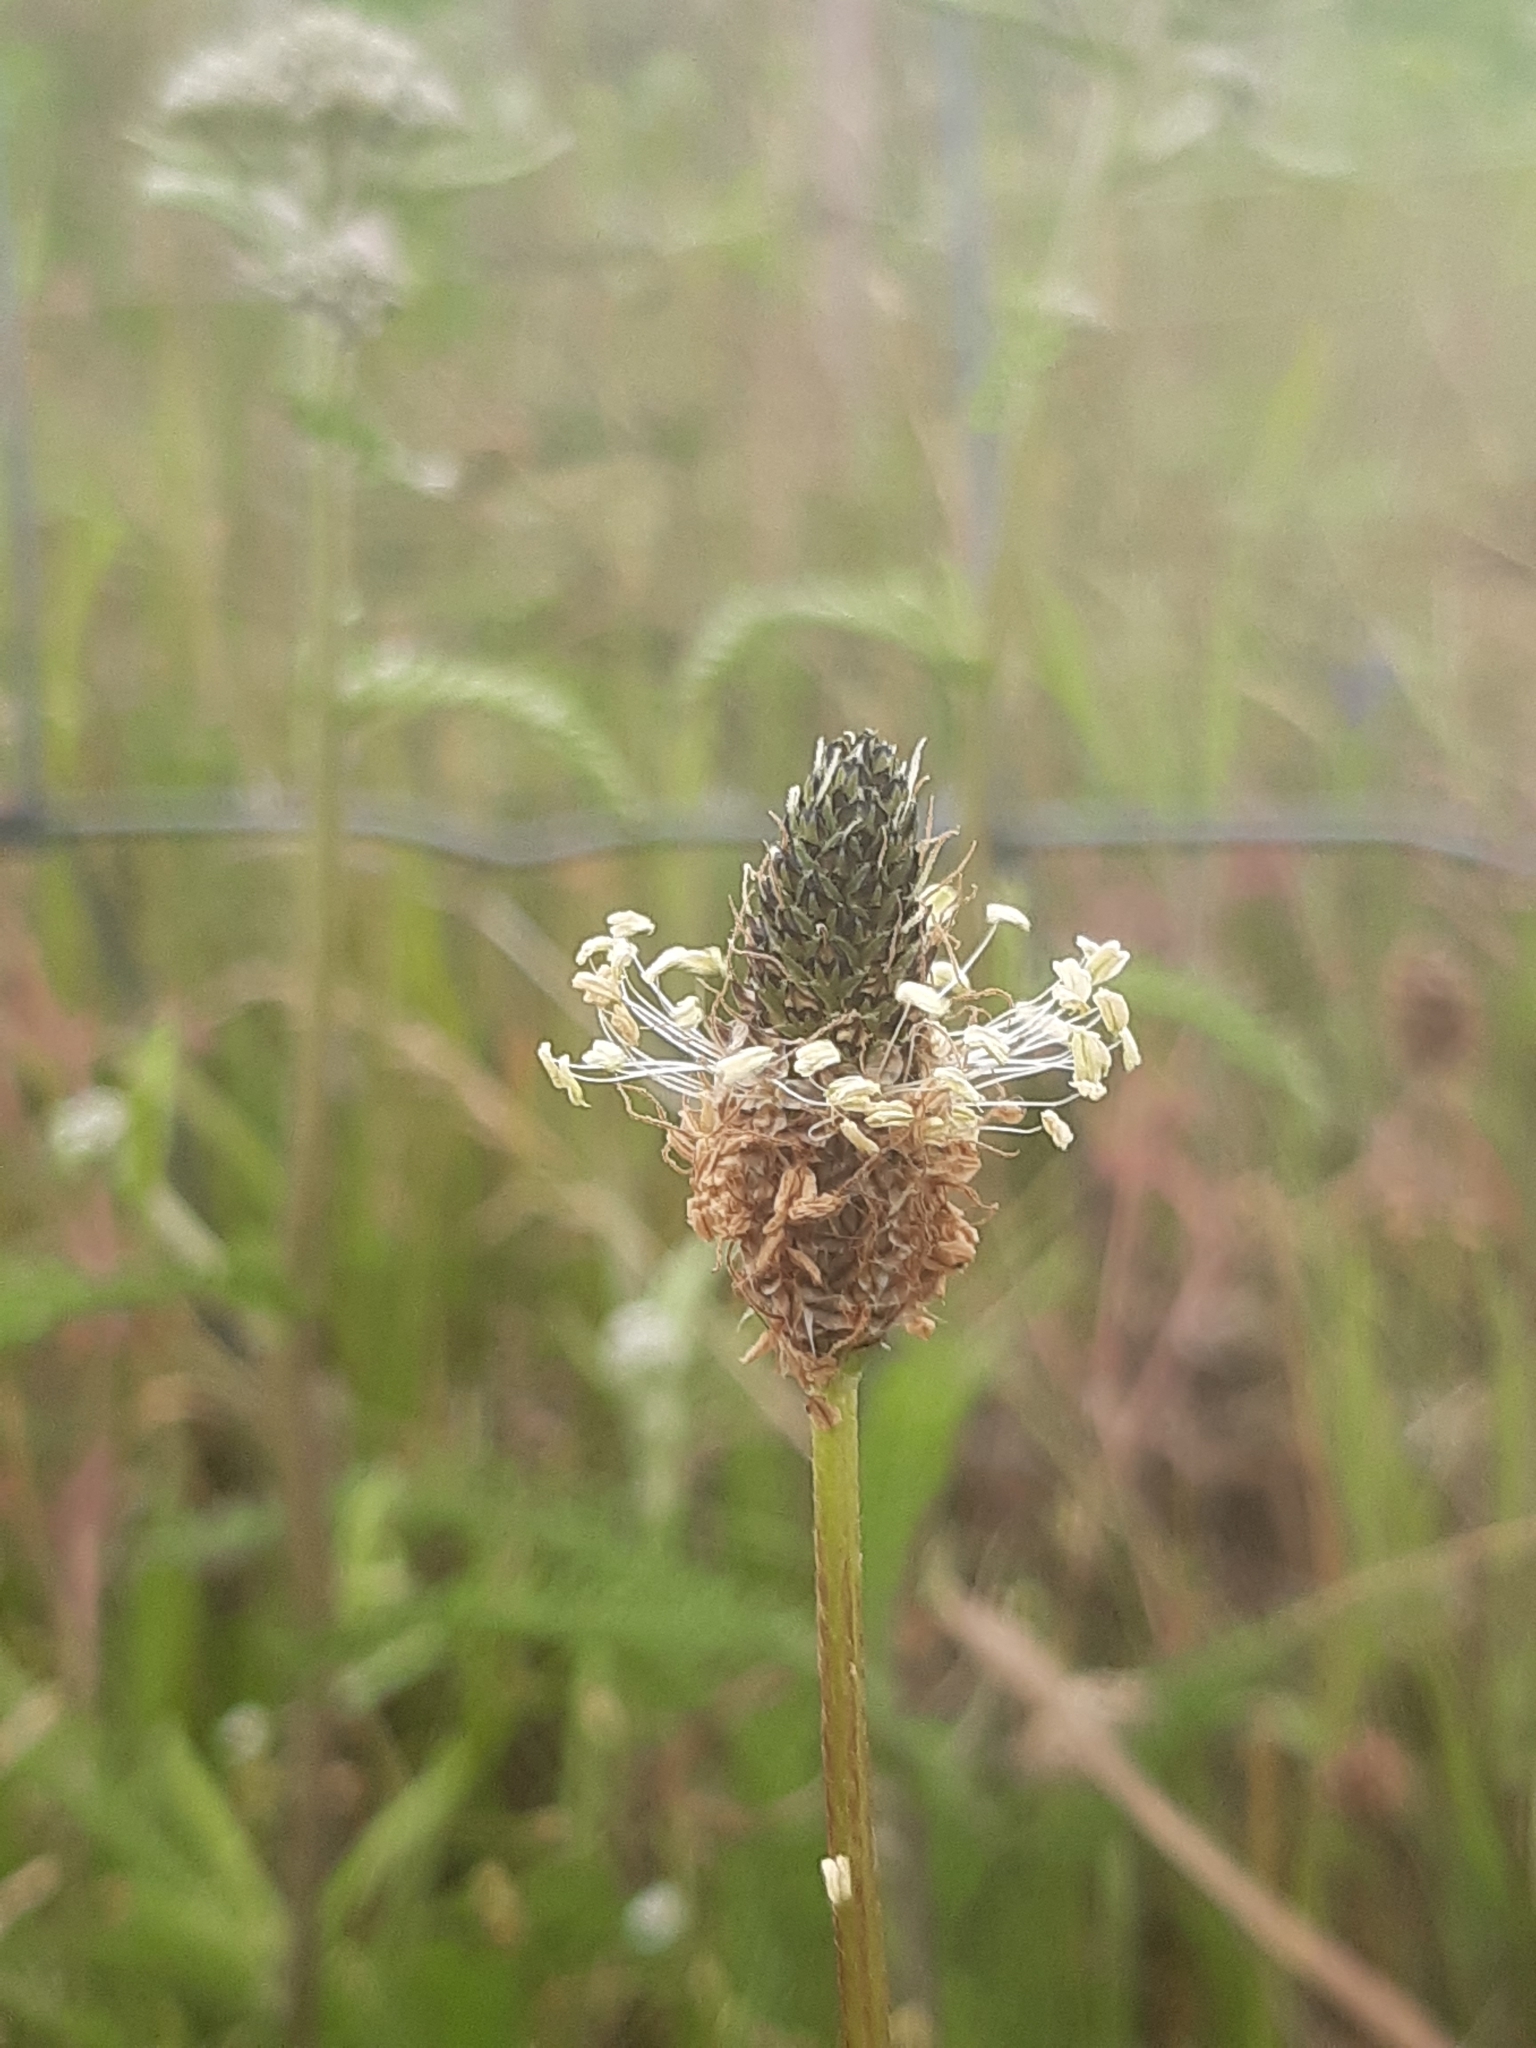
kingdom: Plantae
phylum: Tracheophyta
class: Magnoliopsida
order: Lamiales
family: Plantaginaceae
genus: Plantago
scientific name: Plantago lanceolata
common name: Ribwort plantain
